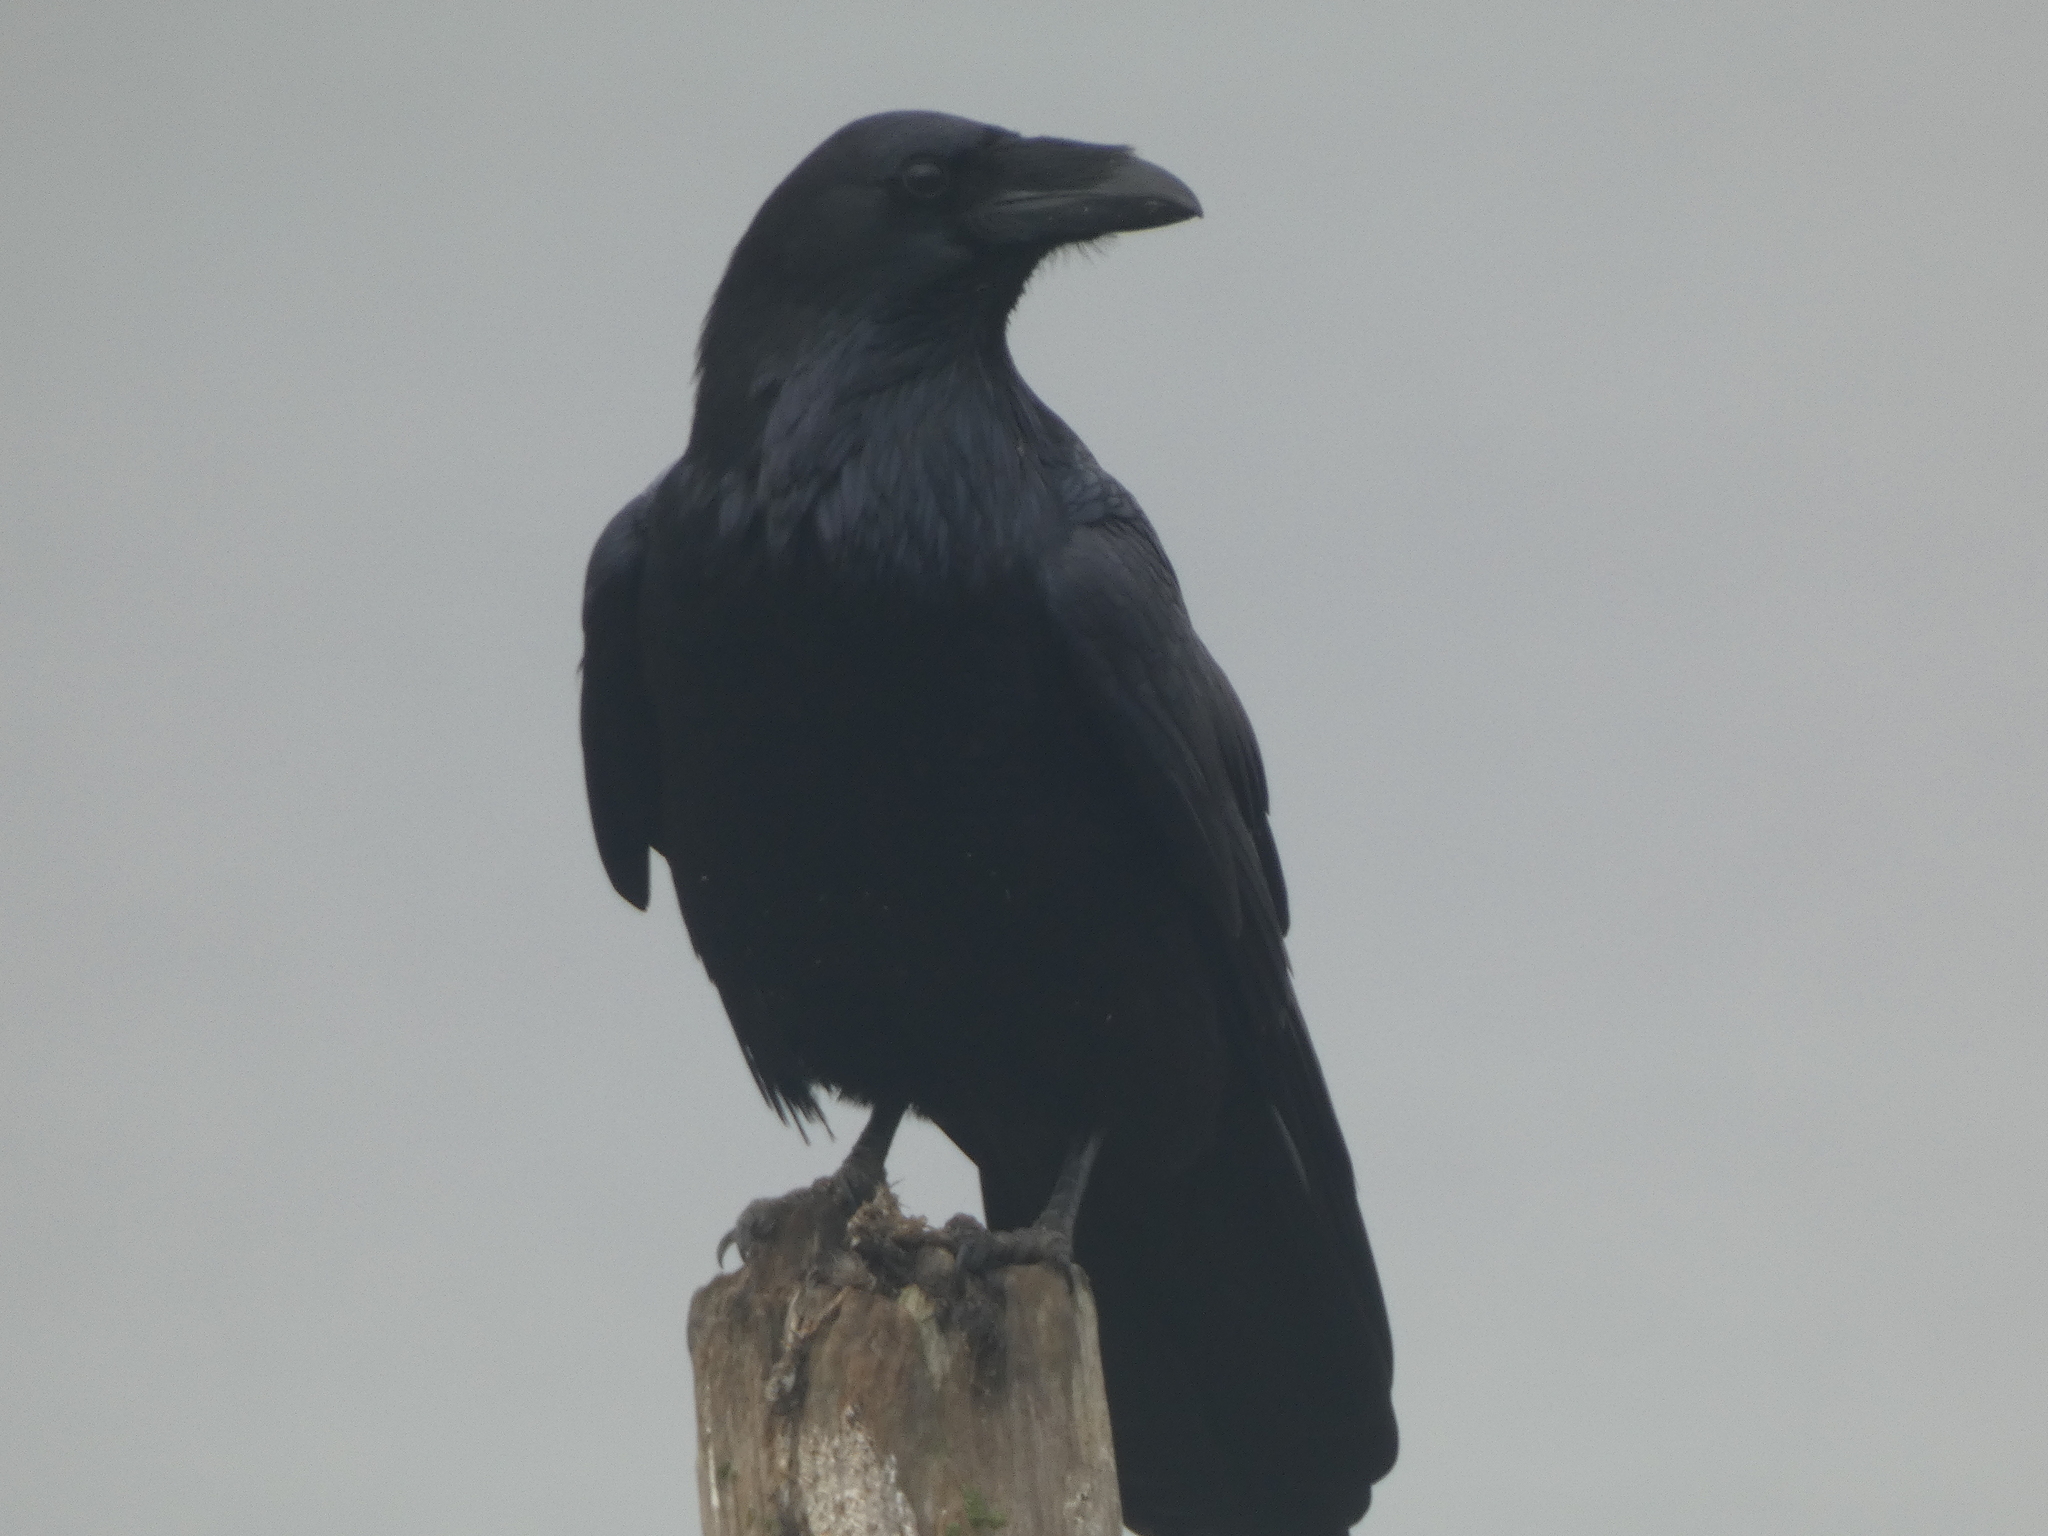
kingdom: Animalia
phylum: Chordata
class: Aves
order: Passeriformes
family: Corvidae
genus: Corvus
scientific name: Corvus corax
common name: Common raven
